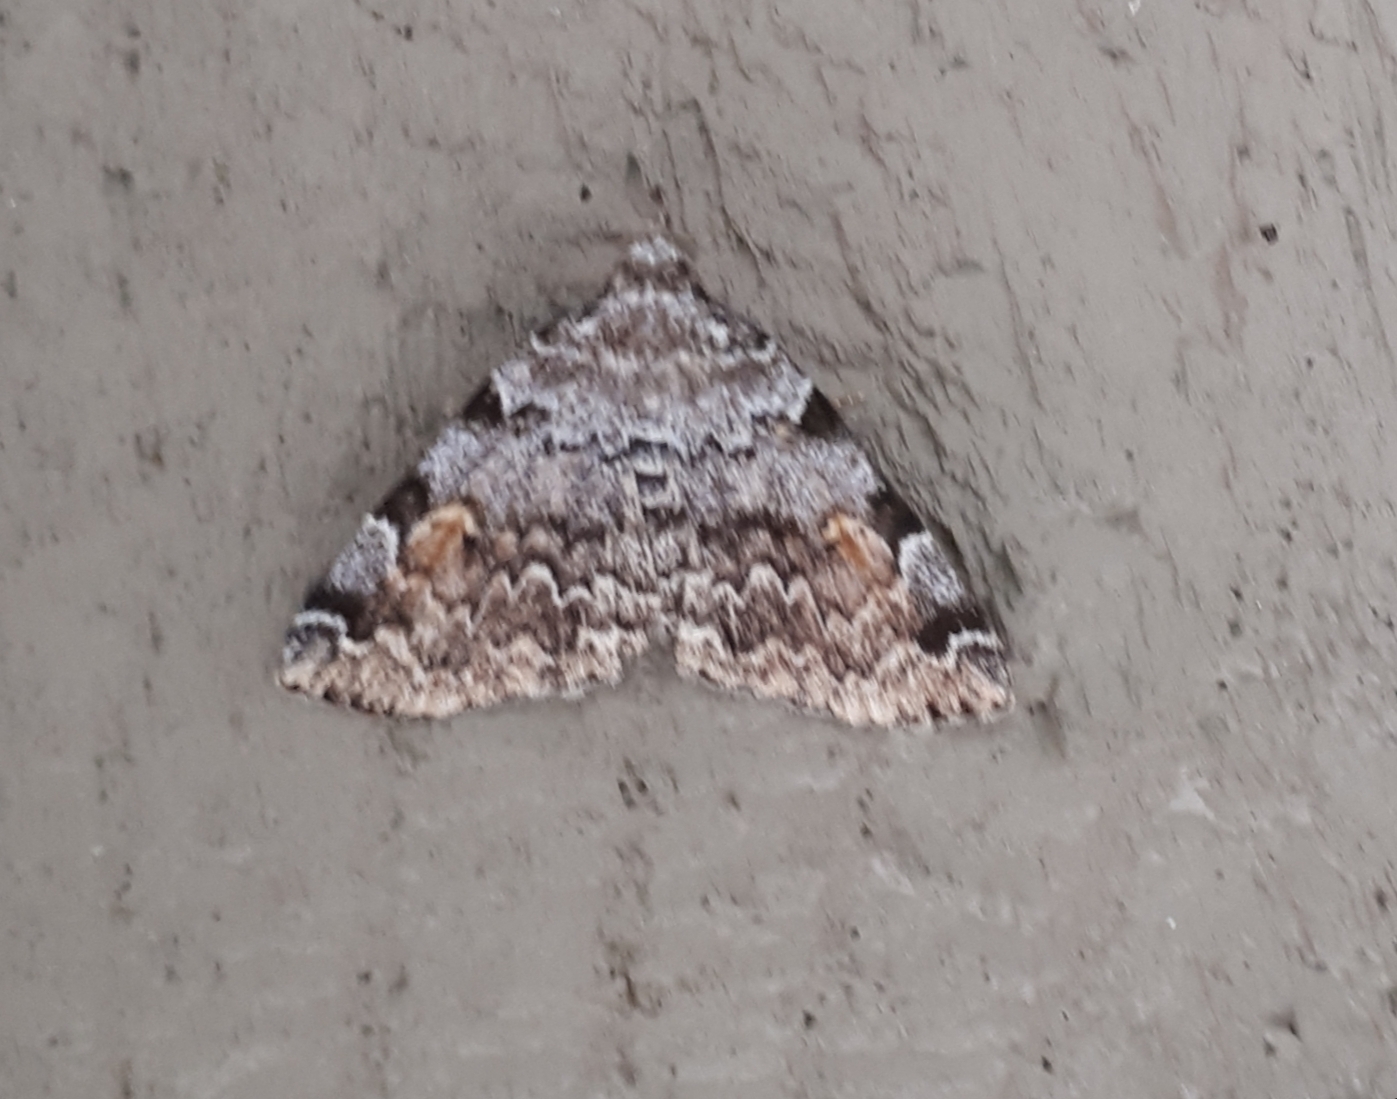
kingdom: Animalia
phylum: Arthropoda
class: Insecta
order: Lepidoptera
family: Erebidae
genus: Idia
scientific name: Idia americalis
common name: American idia moth
